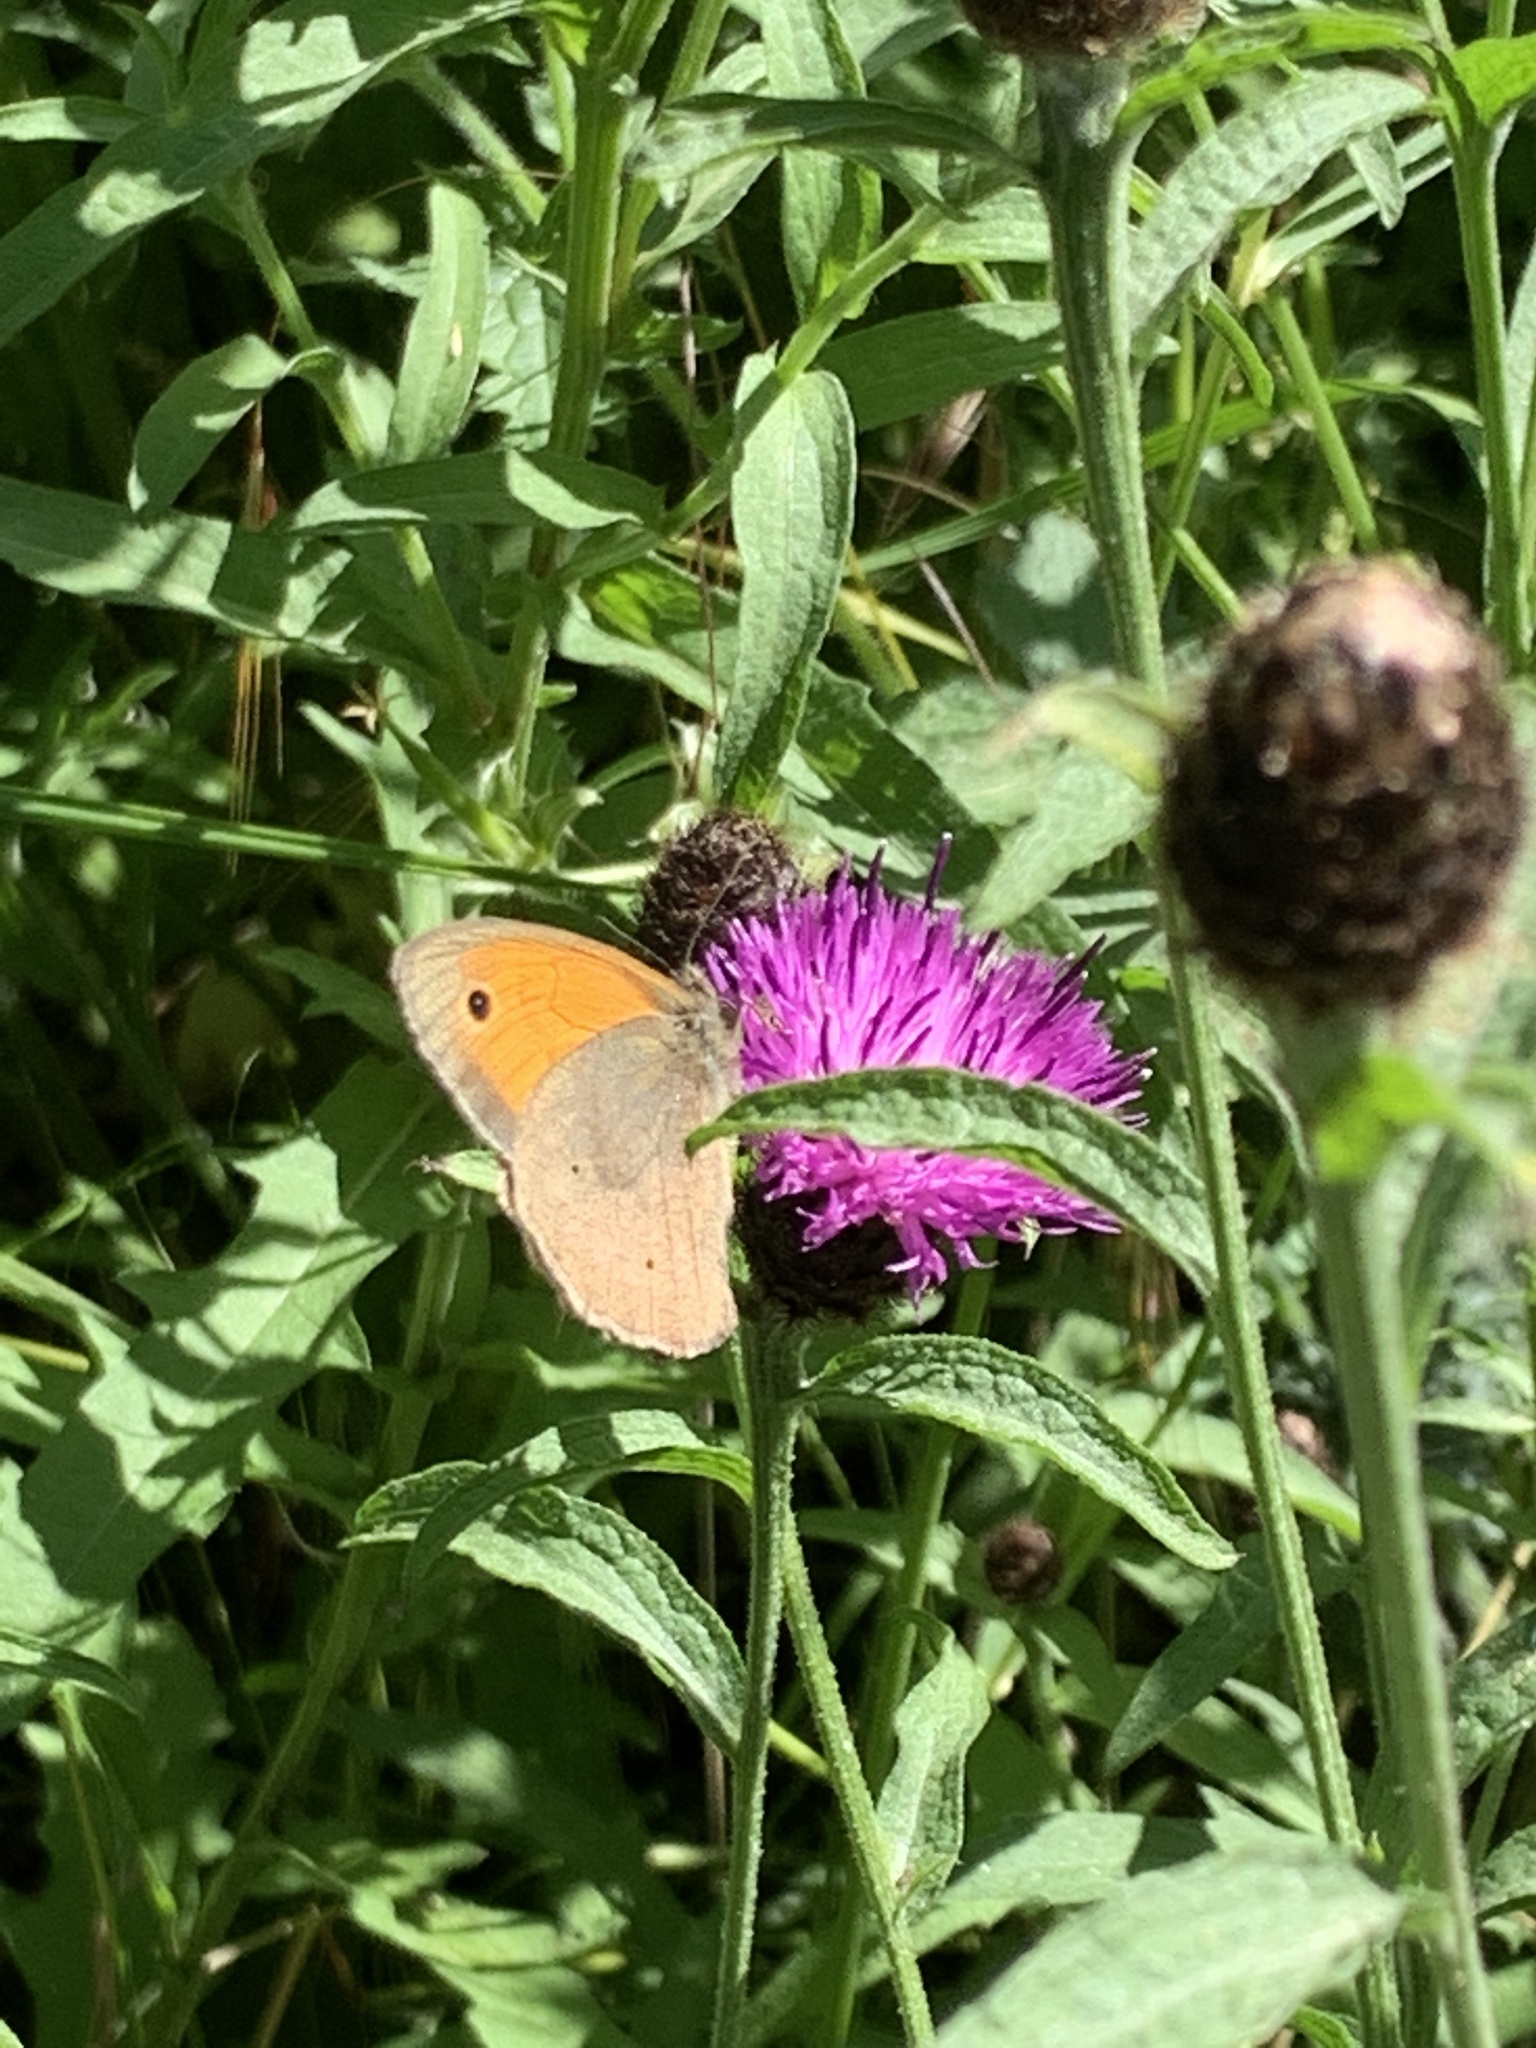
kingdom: Animalia
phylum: Arthropoda
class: Insecta
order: Lepidoptera
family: Nymphalidae
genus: Maniola
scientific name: Maniola jurtina
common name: Meadow brown
